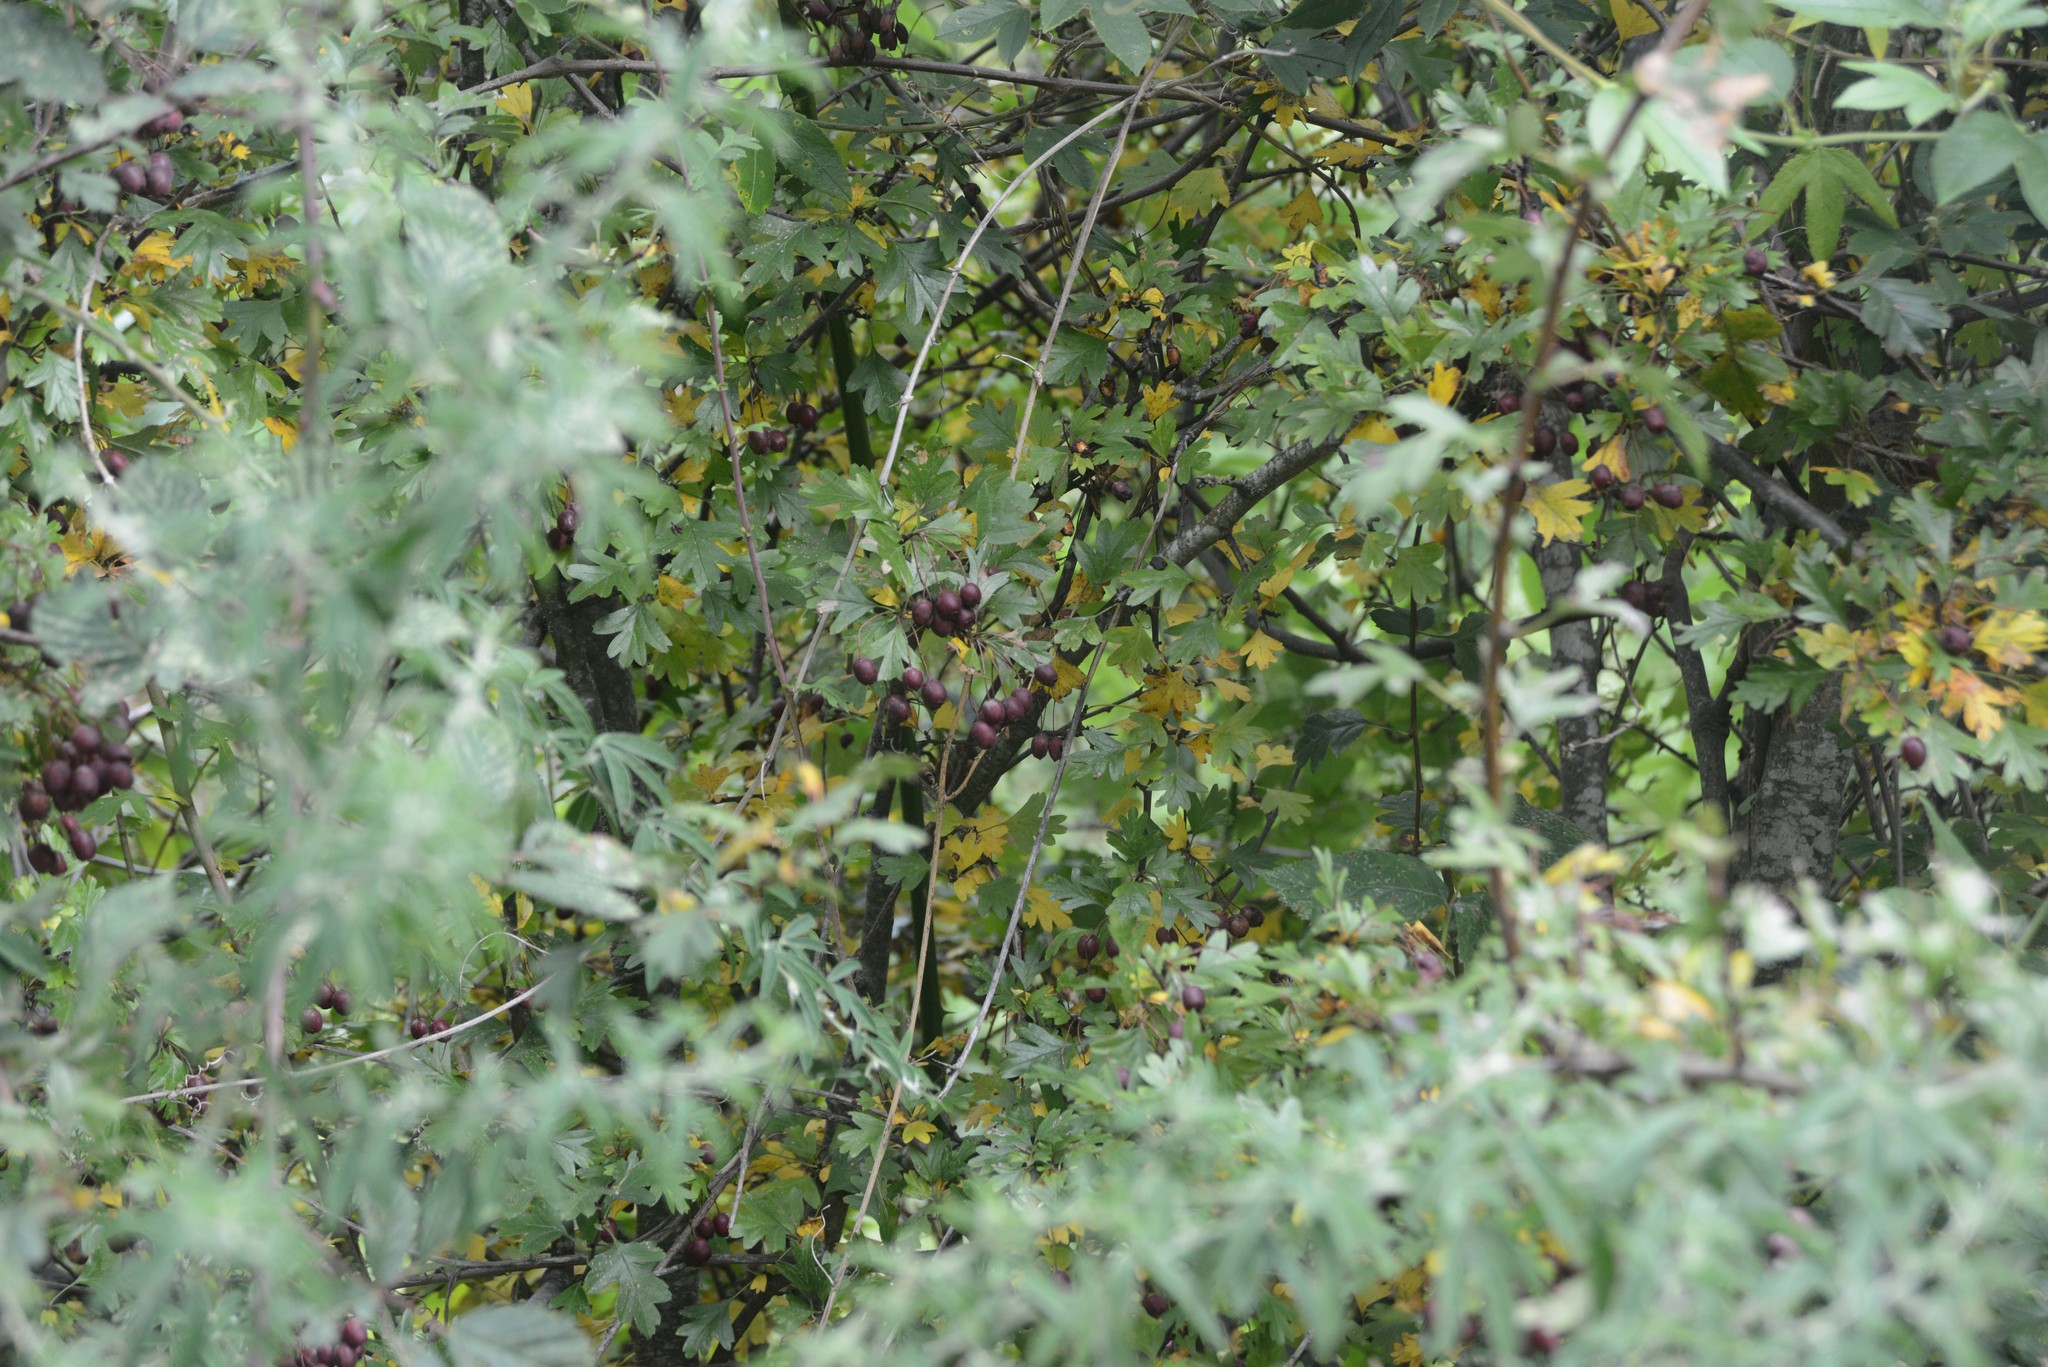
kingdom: Plantae
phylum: Tracheophyta
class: Magnoliopsida
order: Rosales
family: Rosaceae
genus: Crataegus
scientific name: Crataegus monogyna
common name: Hawthorn
